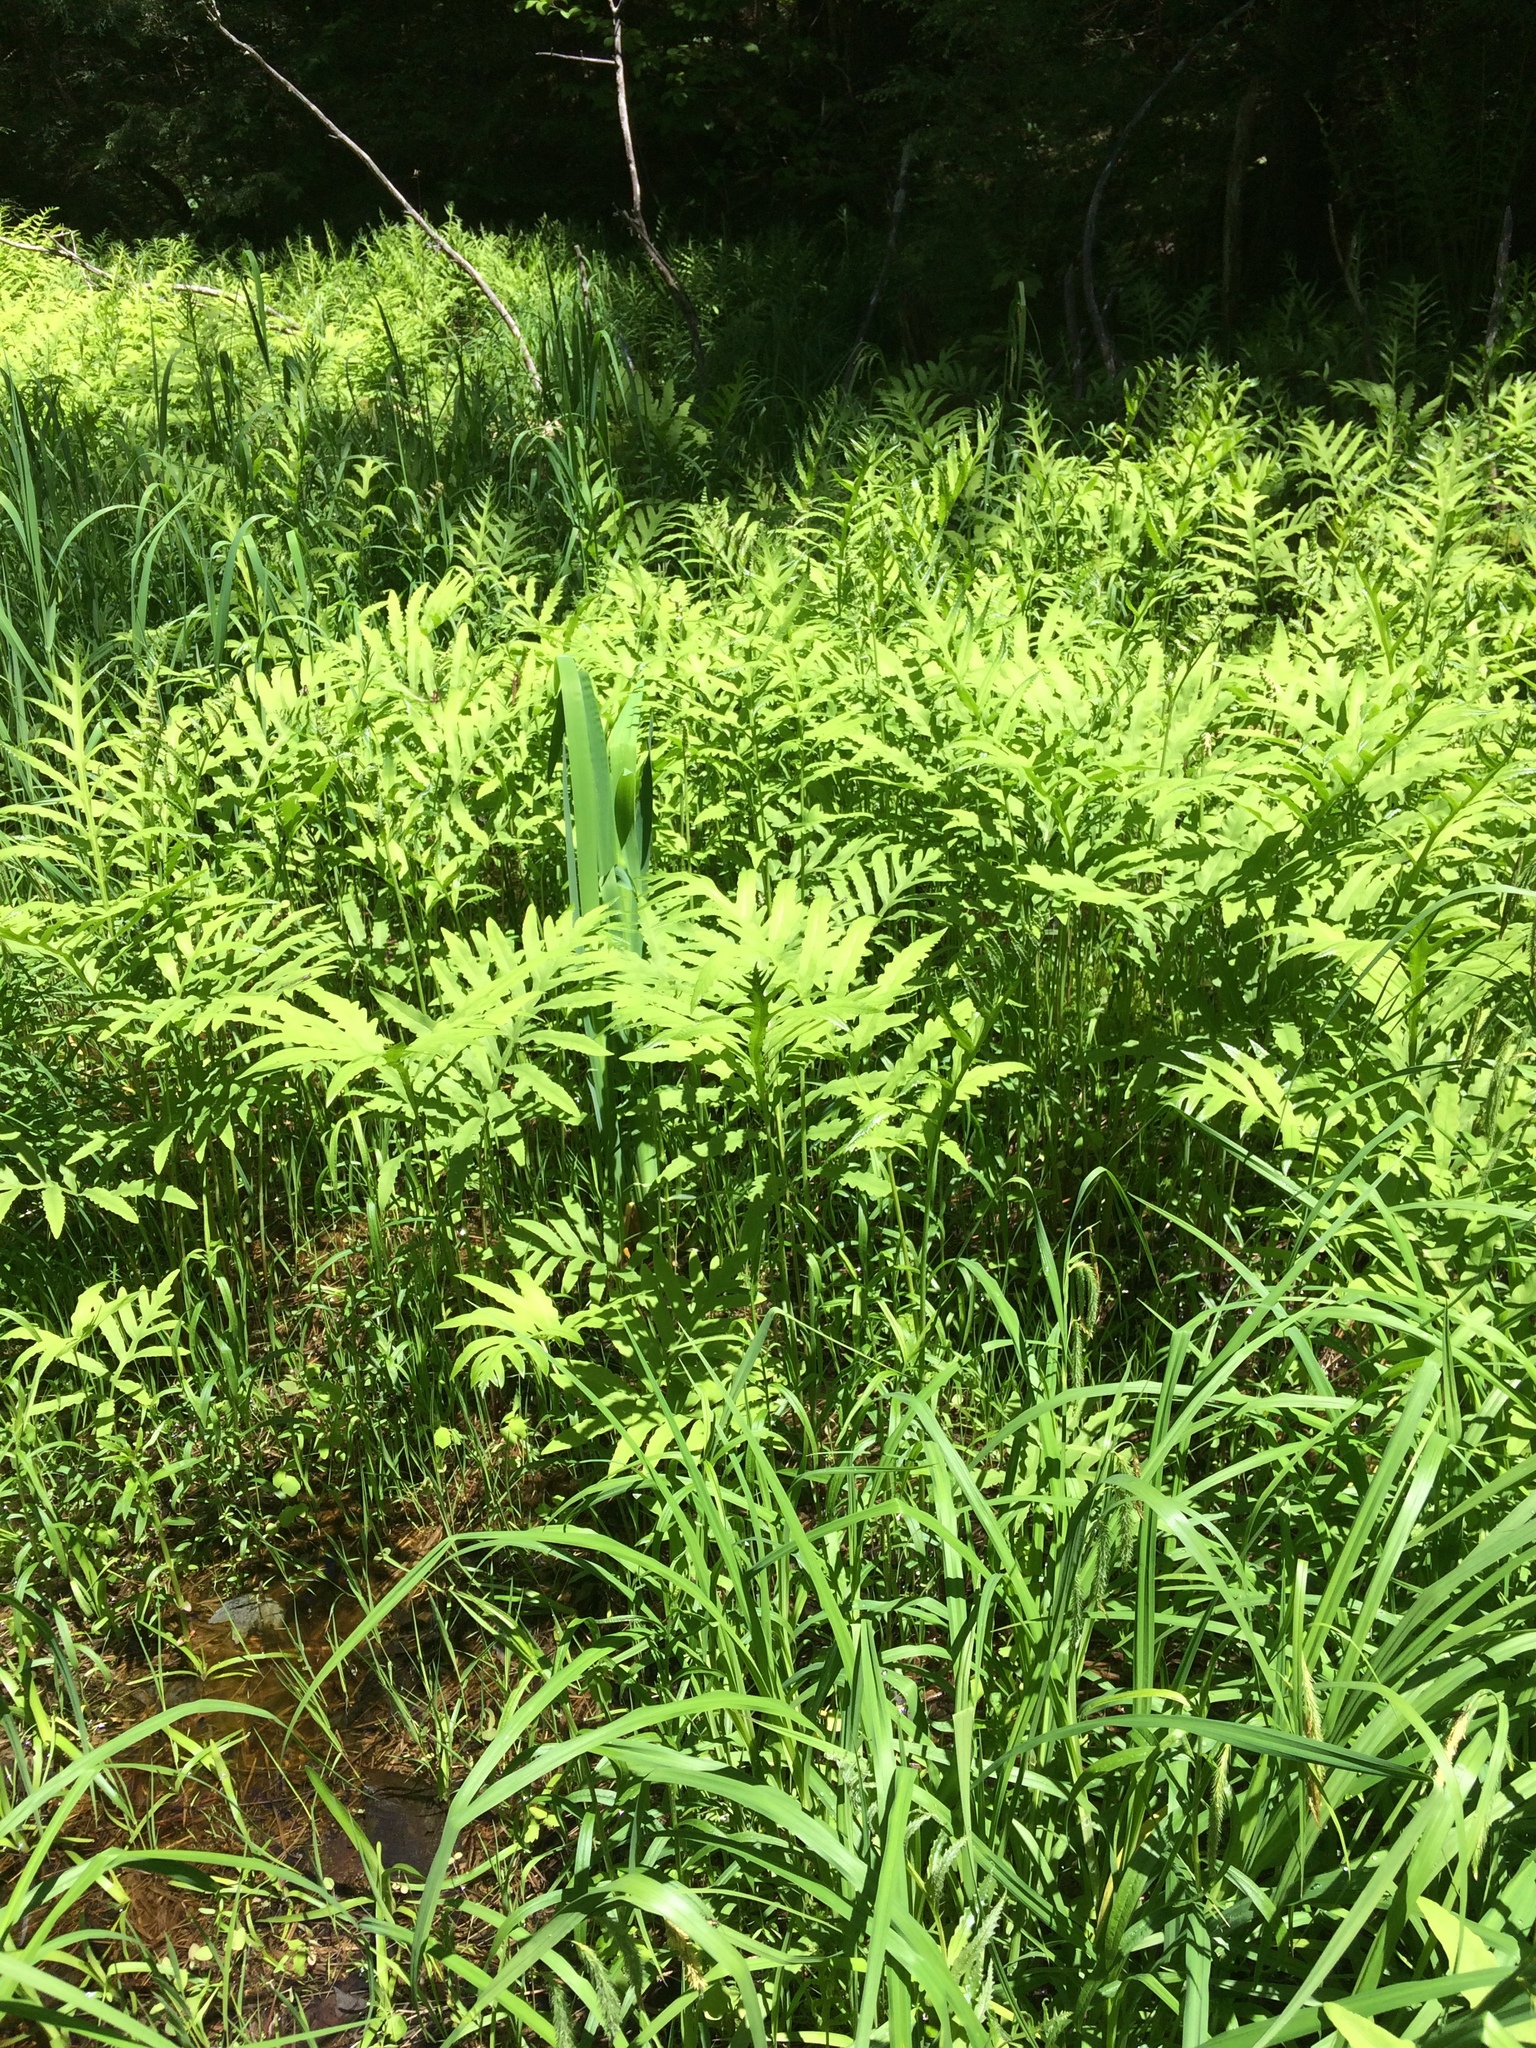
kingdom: Plantae
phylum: Tracheophyta
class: Polypodiopsida
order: Polypodiales
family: Onocleaceae
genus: Onoclea
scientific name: Onoclea sensibilis
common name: Sensitive fern
